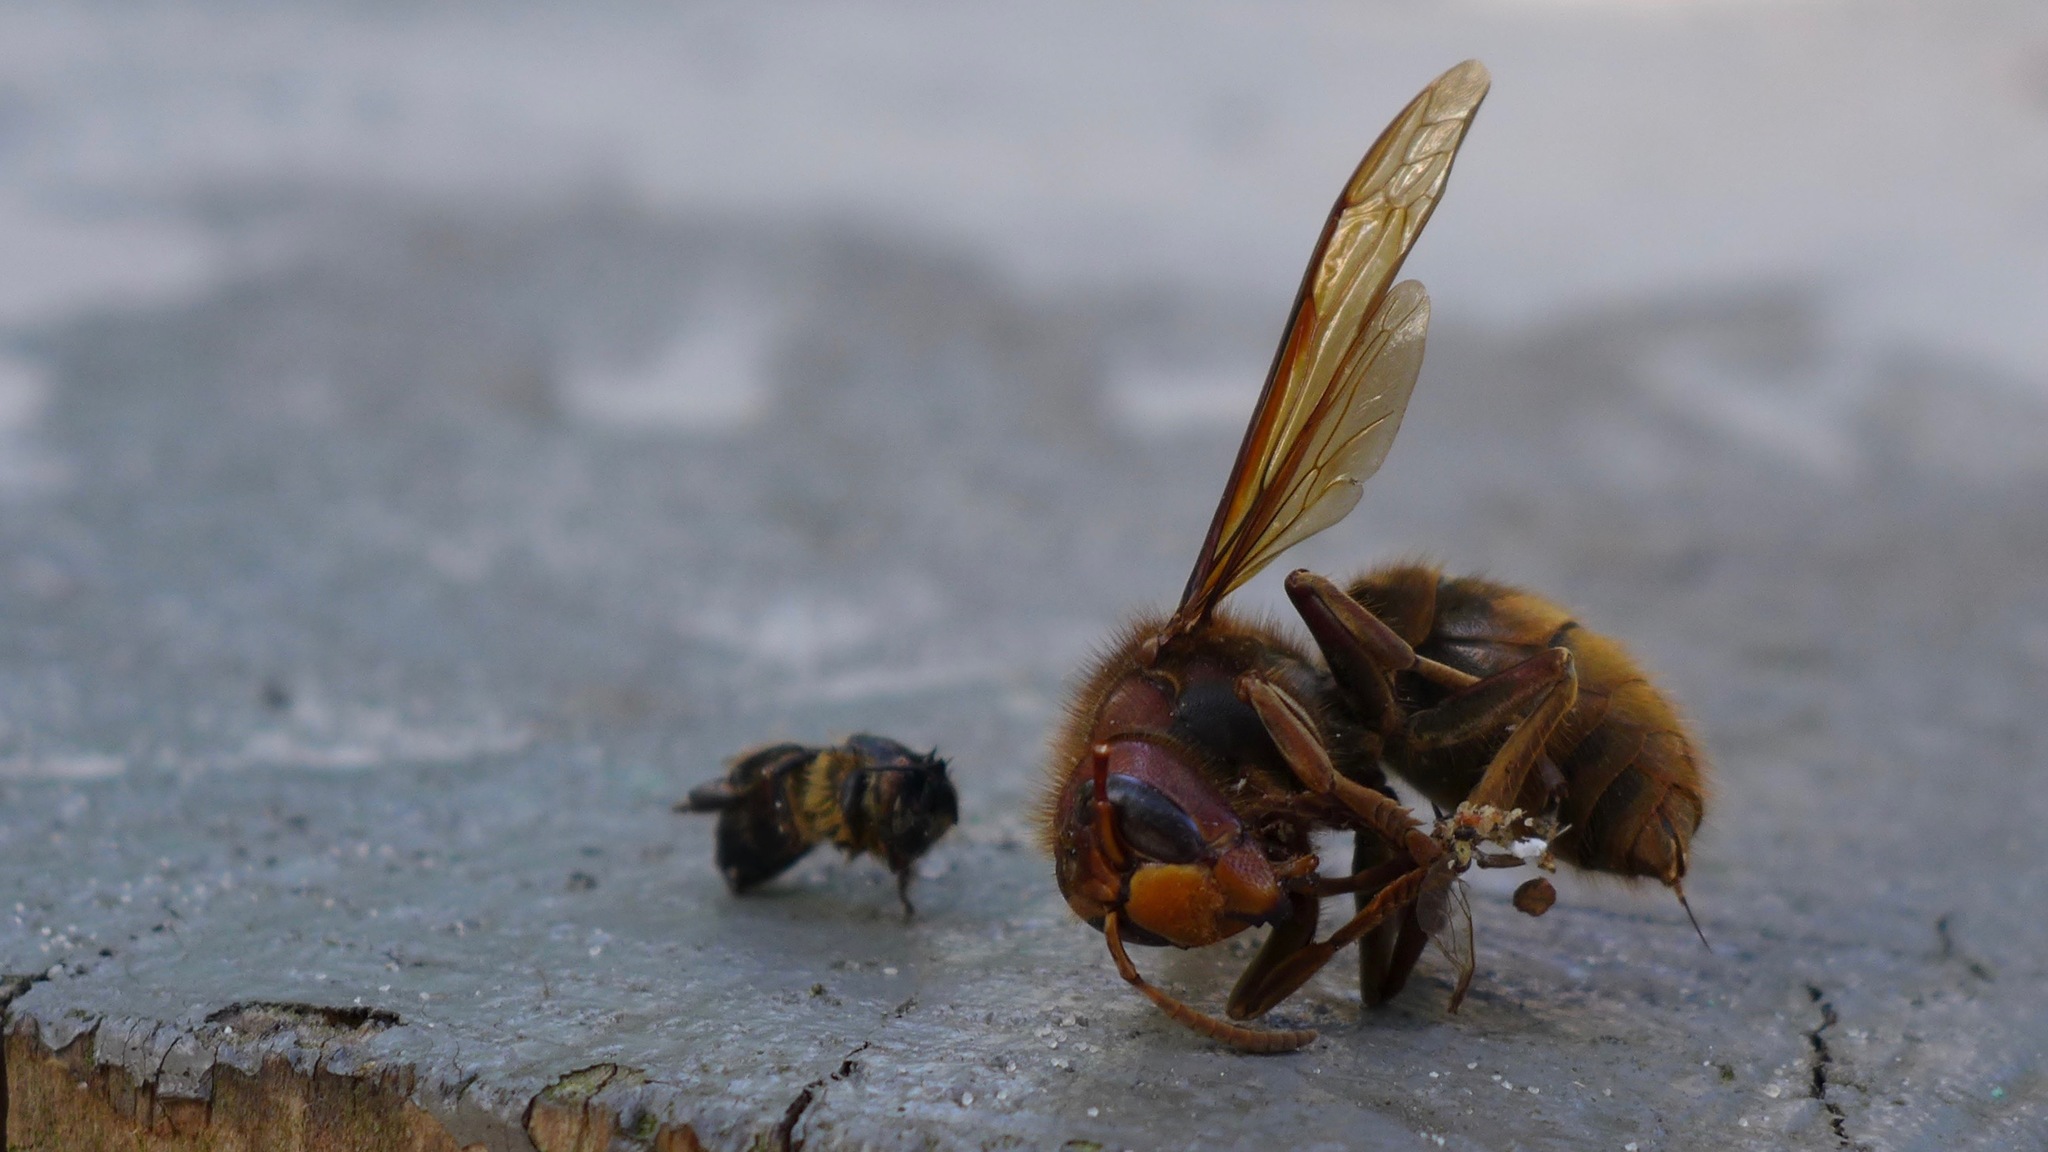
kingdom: Animalia
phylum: Arthropoda
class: Insecta
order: Hymenoptera
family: Vespidae
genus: Vespa
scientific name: Vespa crabro
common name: Hornet
